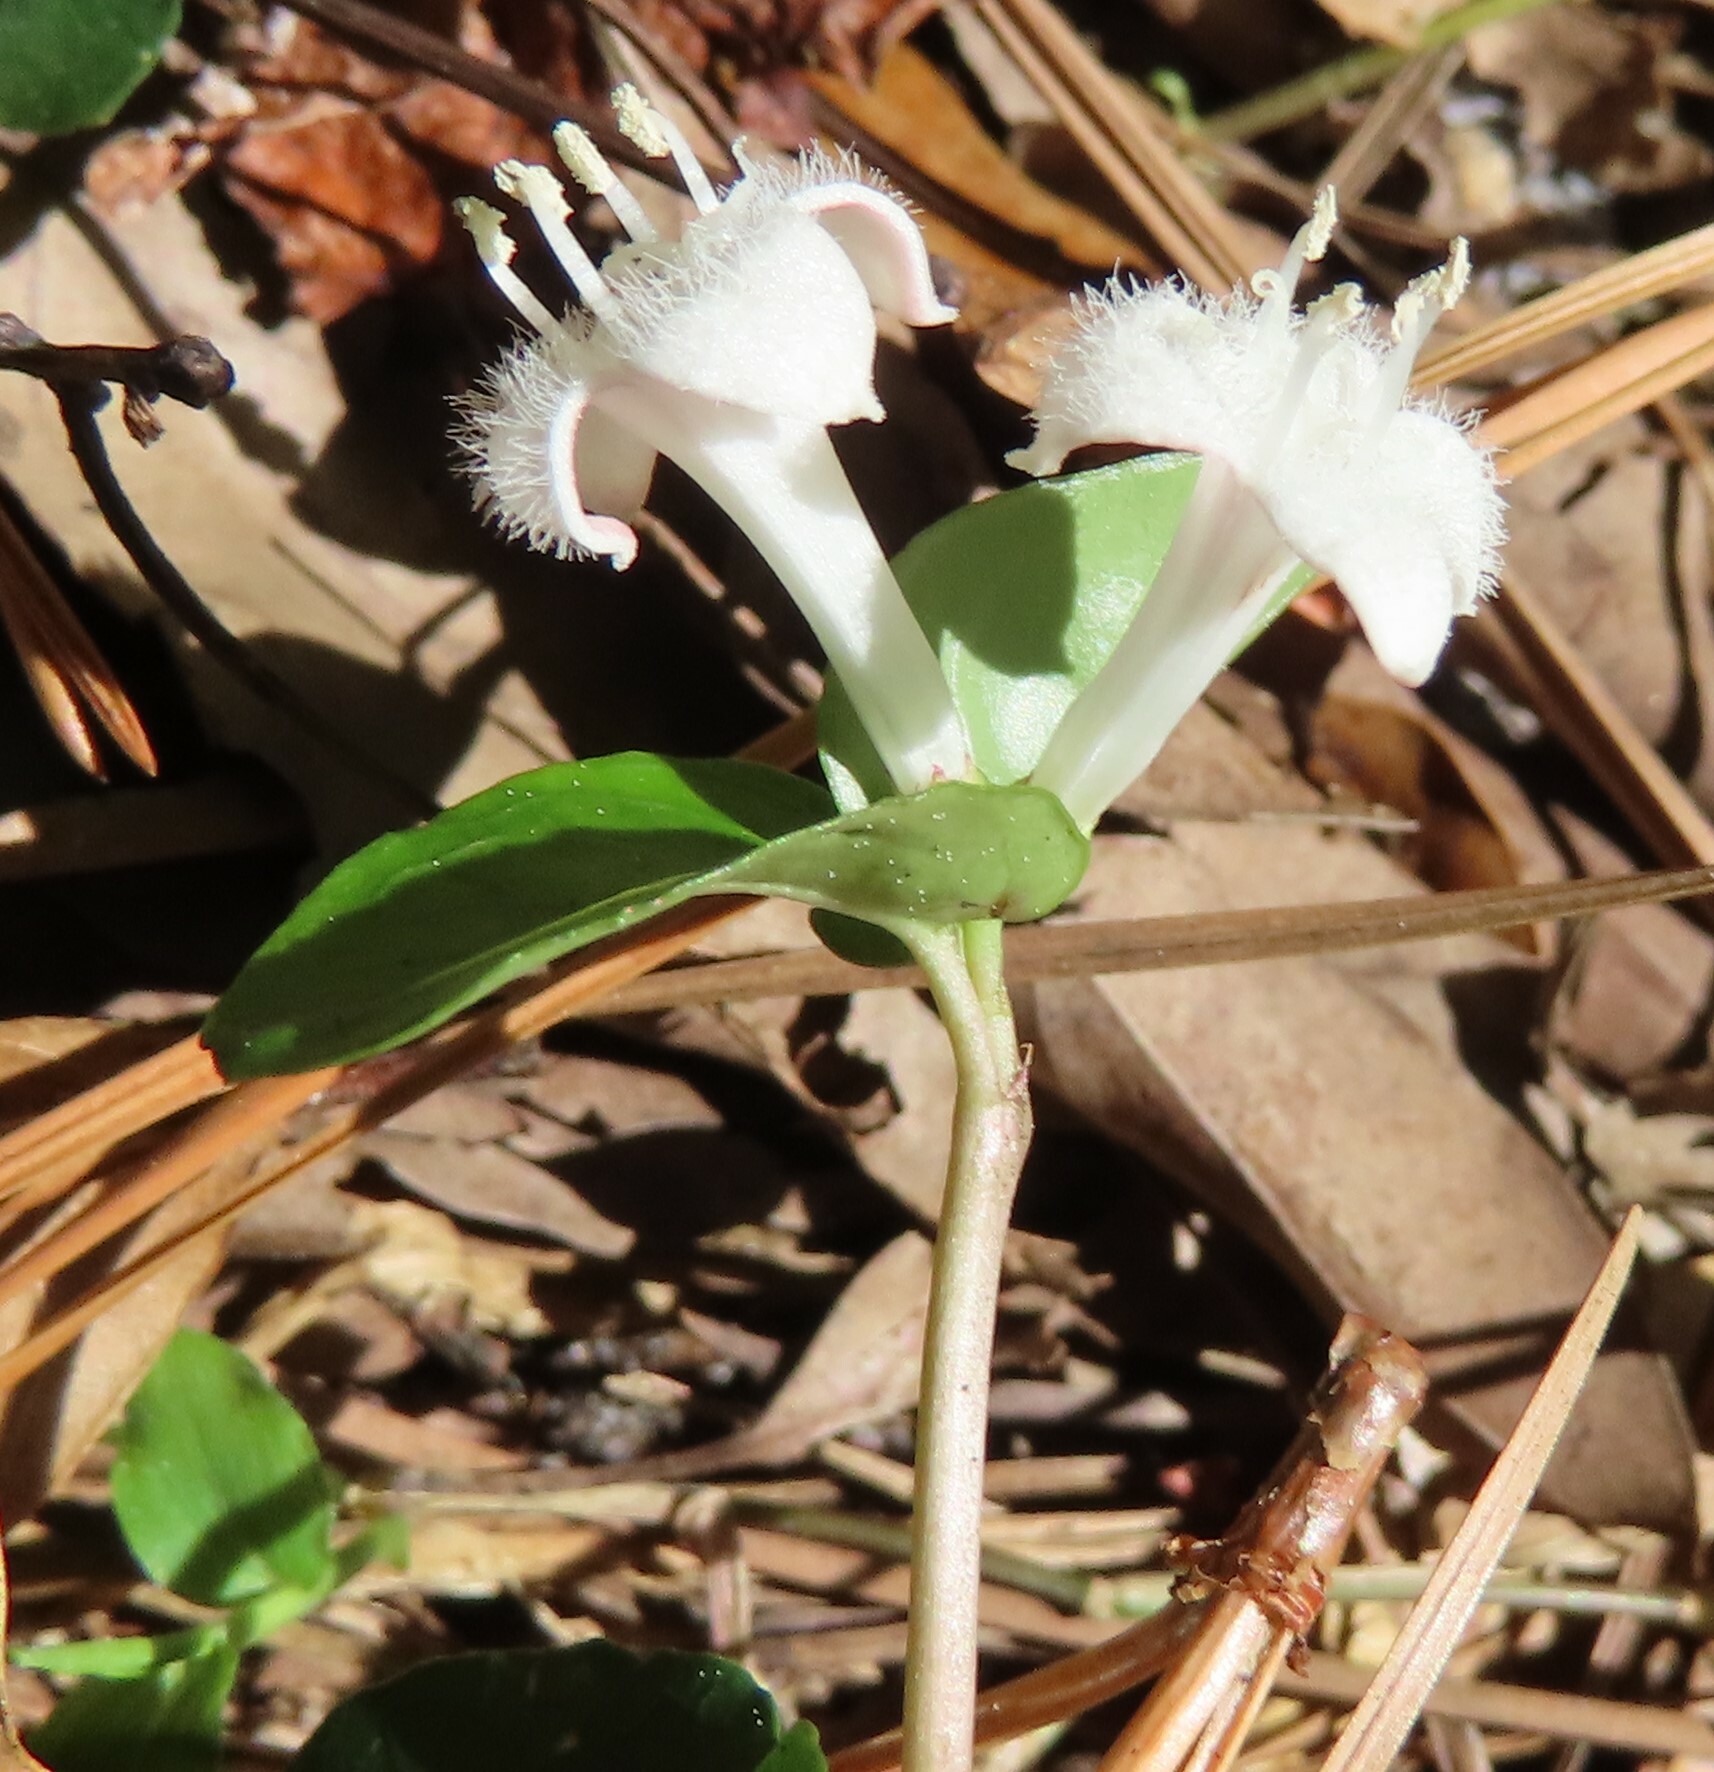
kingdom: Plantae
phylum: Tracheophyta
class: Magnoliopsida
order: Gentianales
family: Rubiaceae
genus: Mitchella
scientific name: Mitchella repens
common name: Partridge-berry
